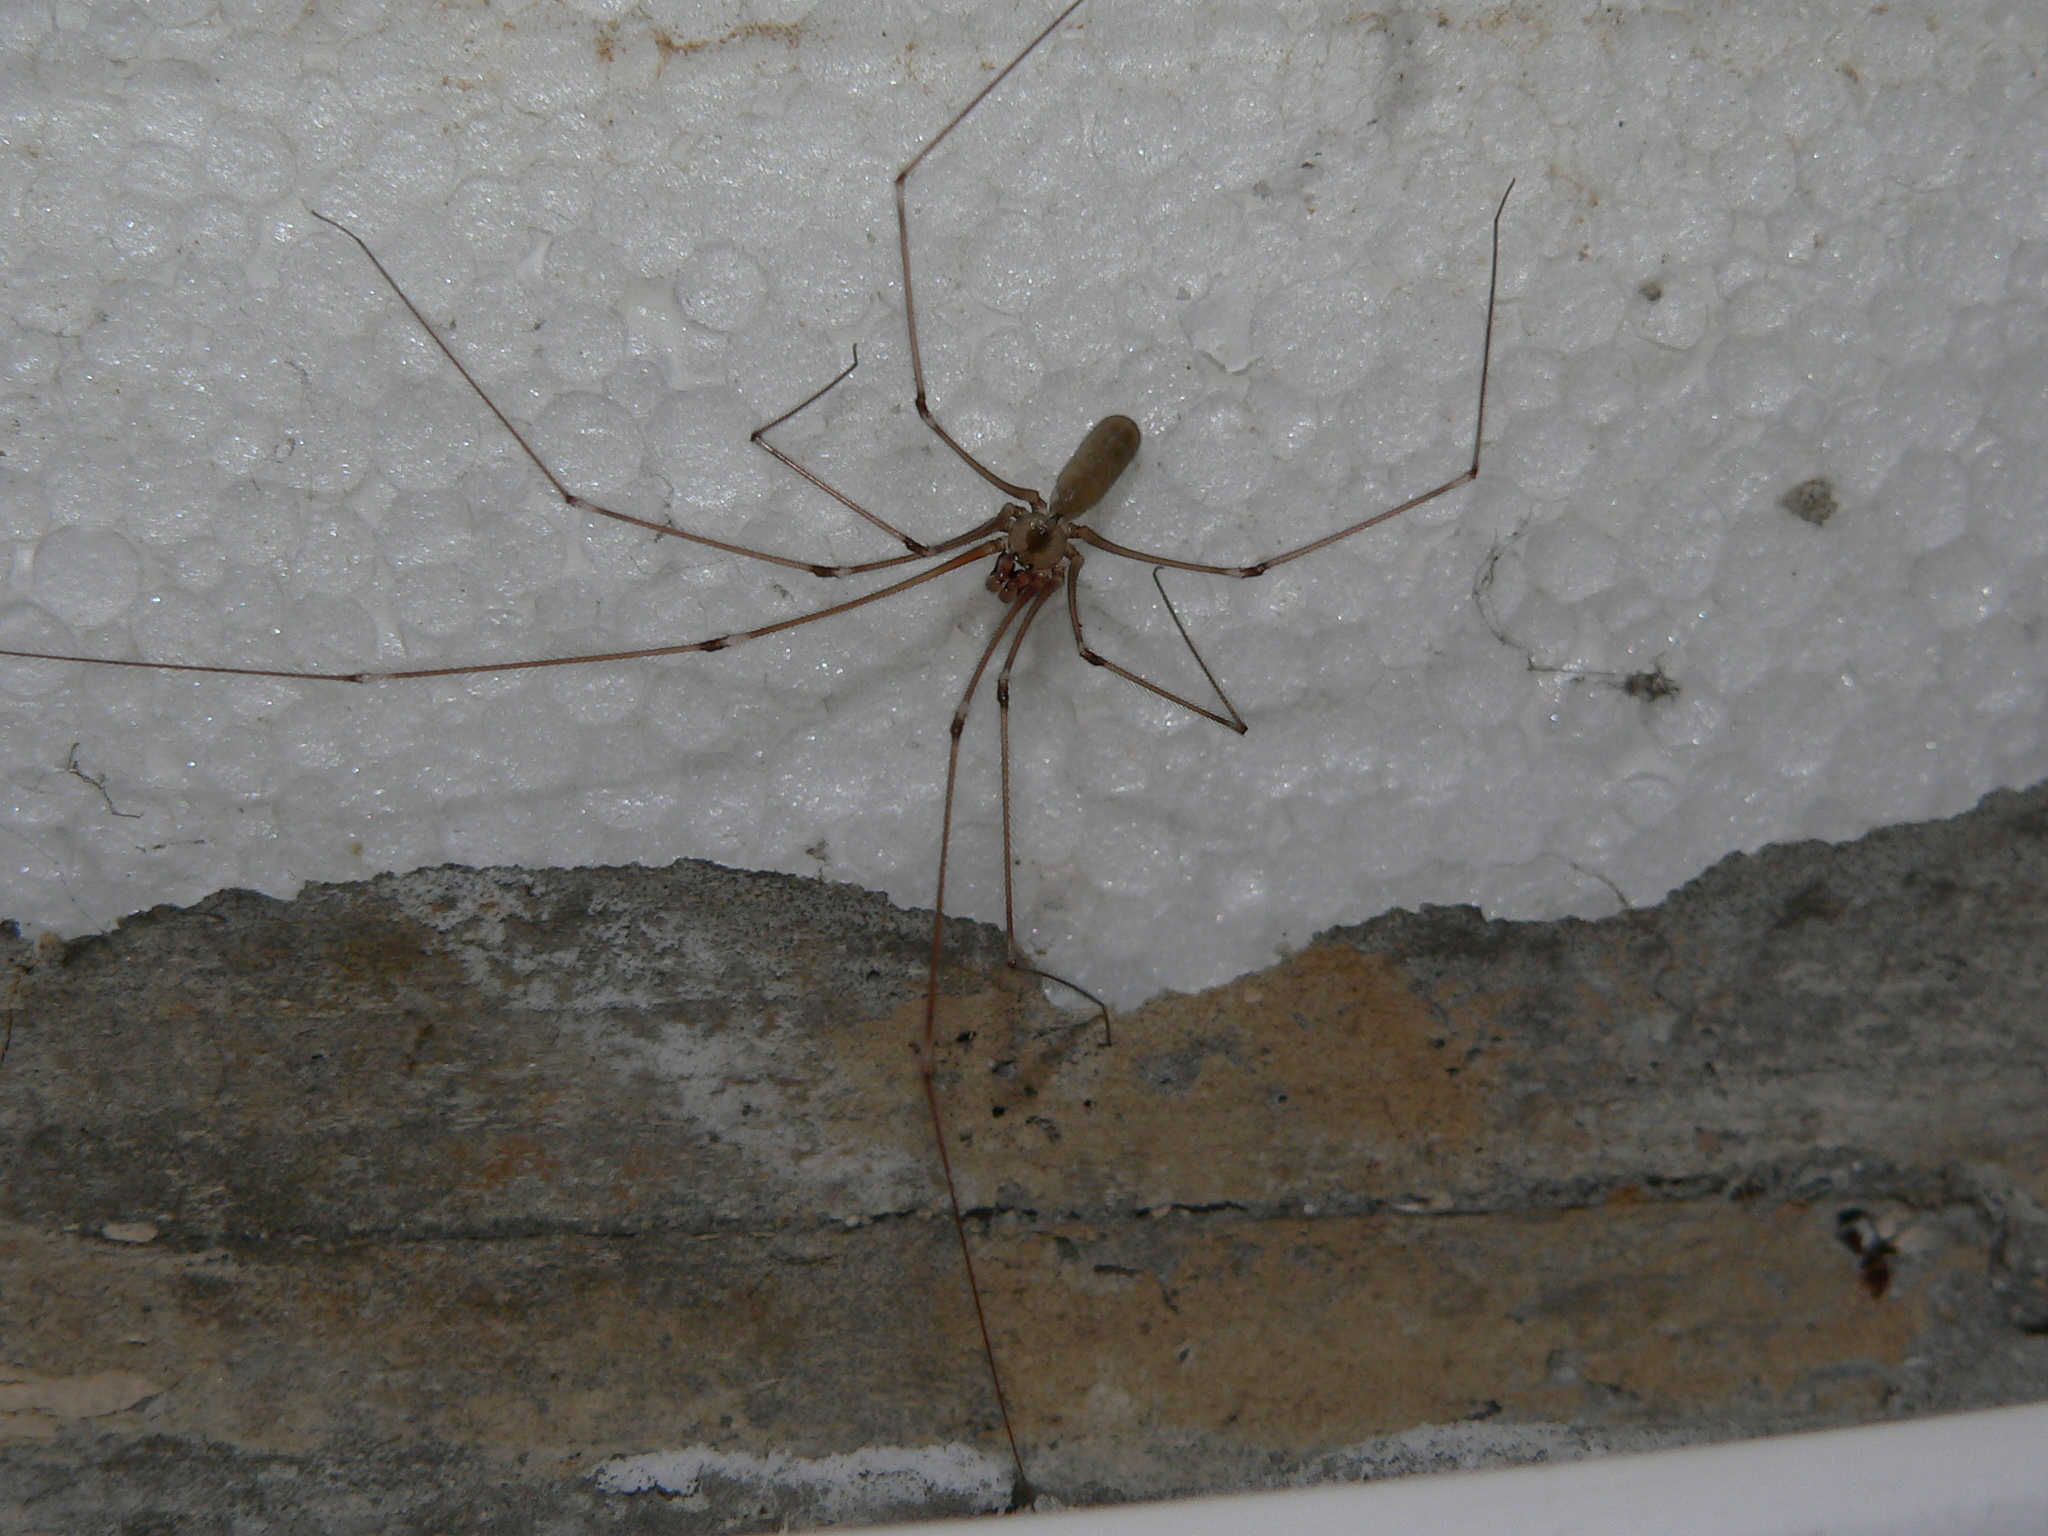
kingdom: Animalia
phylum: Arthropoda
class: Arachnida
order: Araneae
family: Pholcidae
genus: Pholcus
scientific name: Pholcus phalangioides
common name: Longbodied cellar spider
